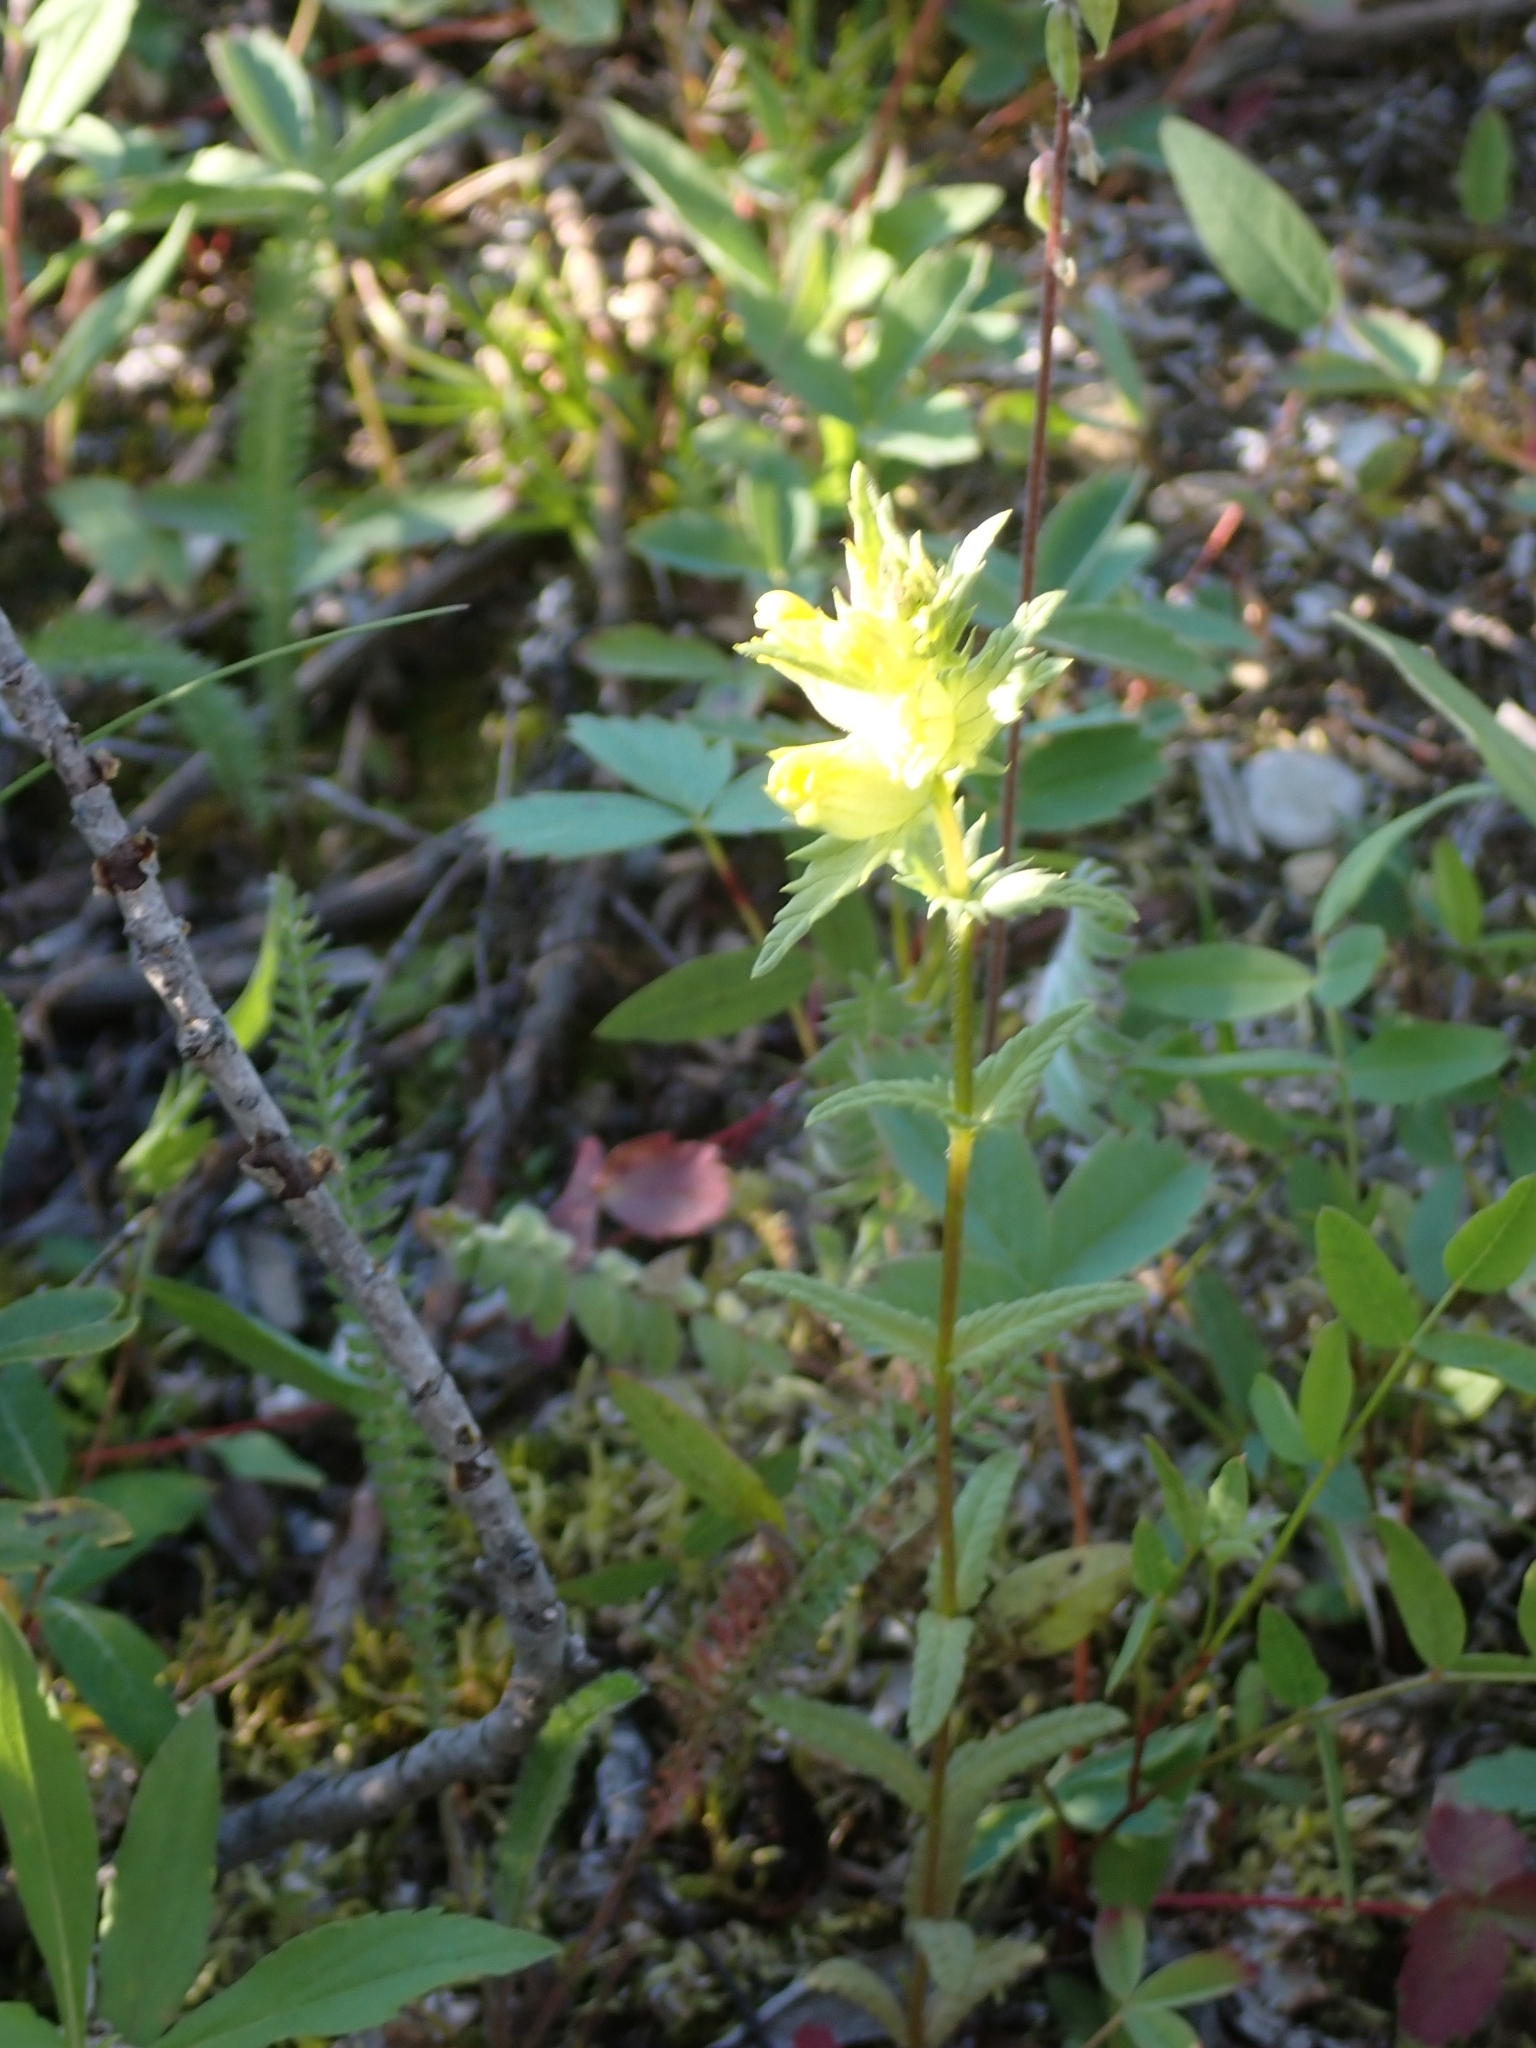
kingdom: Plantae
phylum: Tracheophyta
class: Magnoliopsida
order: Lamiales
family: Orobanchaceae
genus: Rhinanthus
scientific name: Rhinanthus groenlandicus
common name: Little yellow rattle
